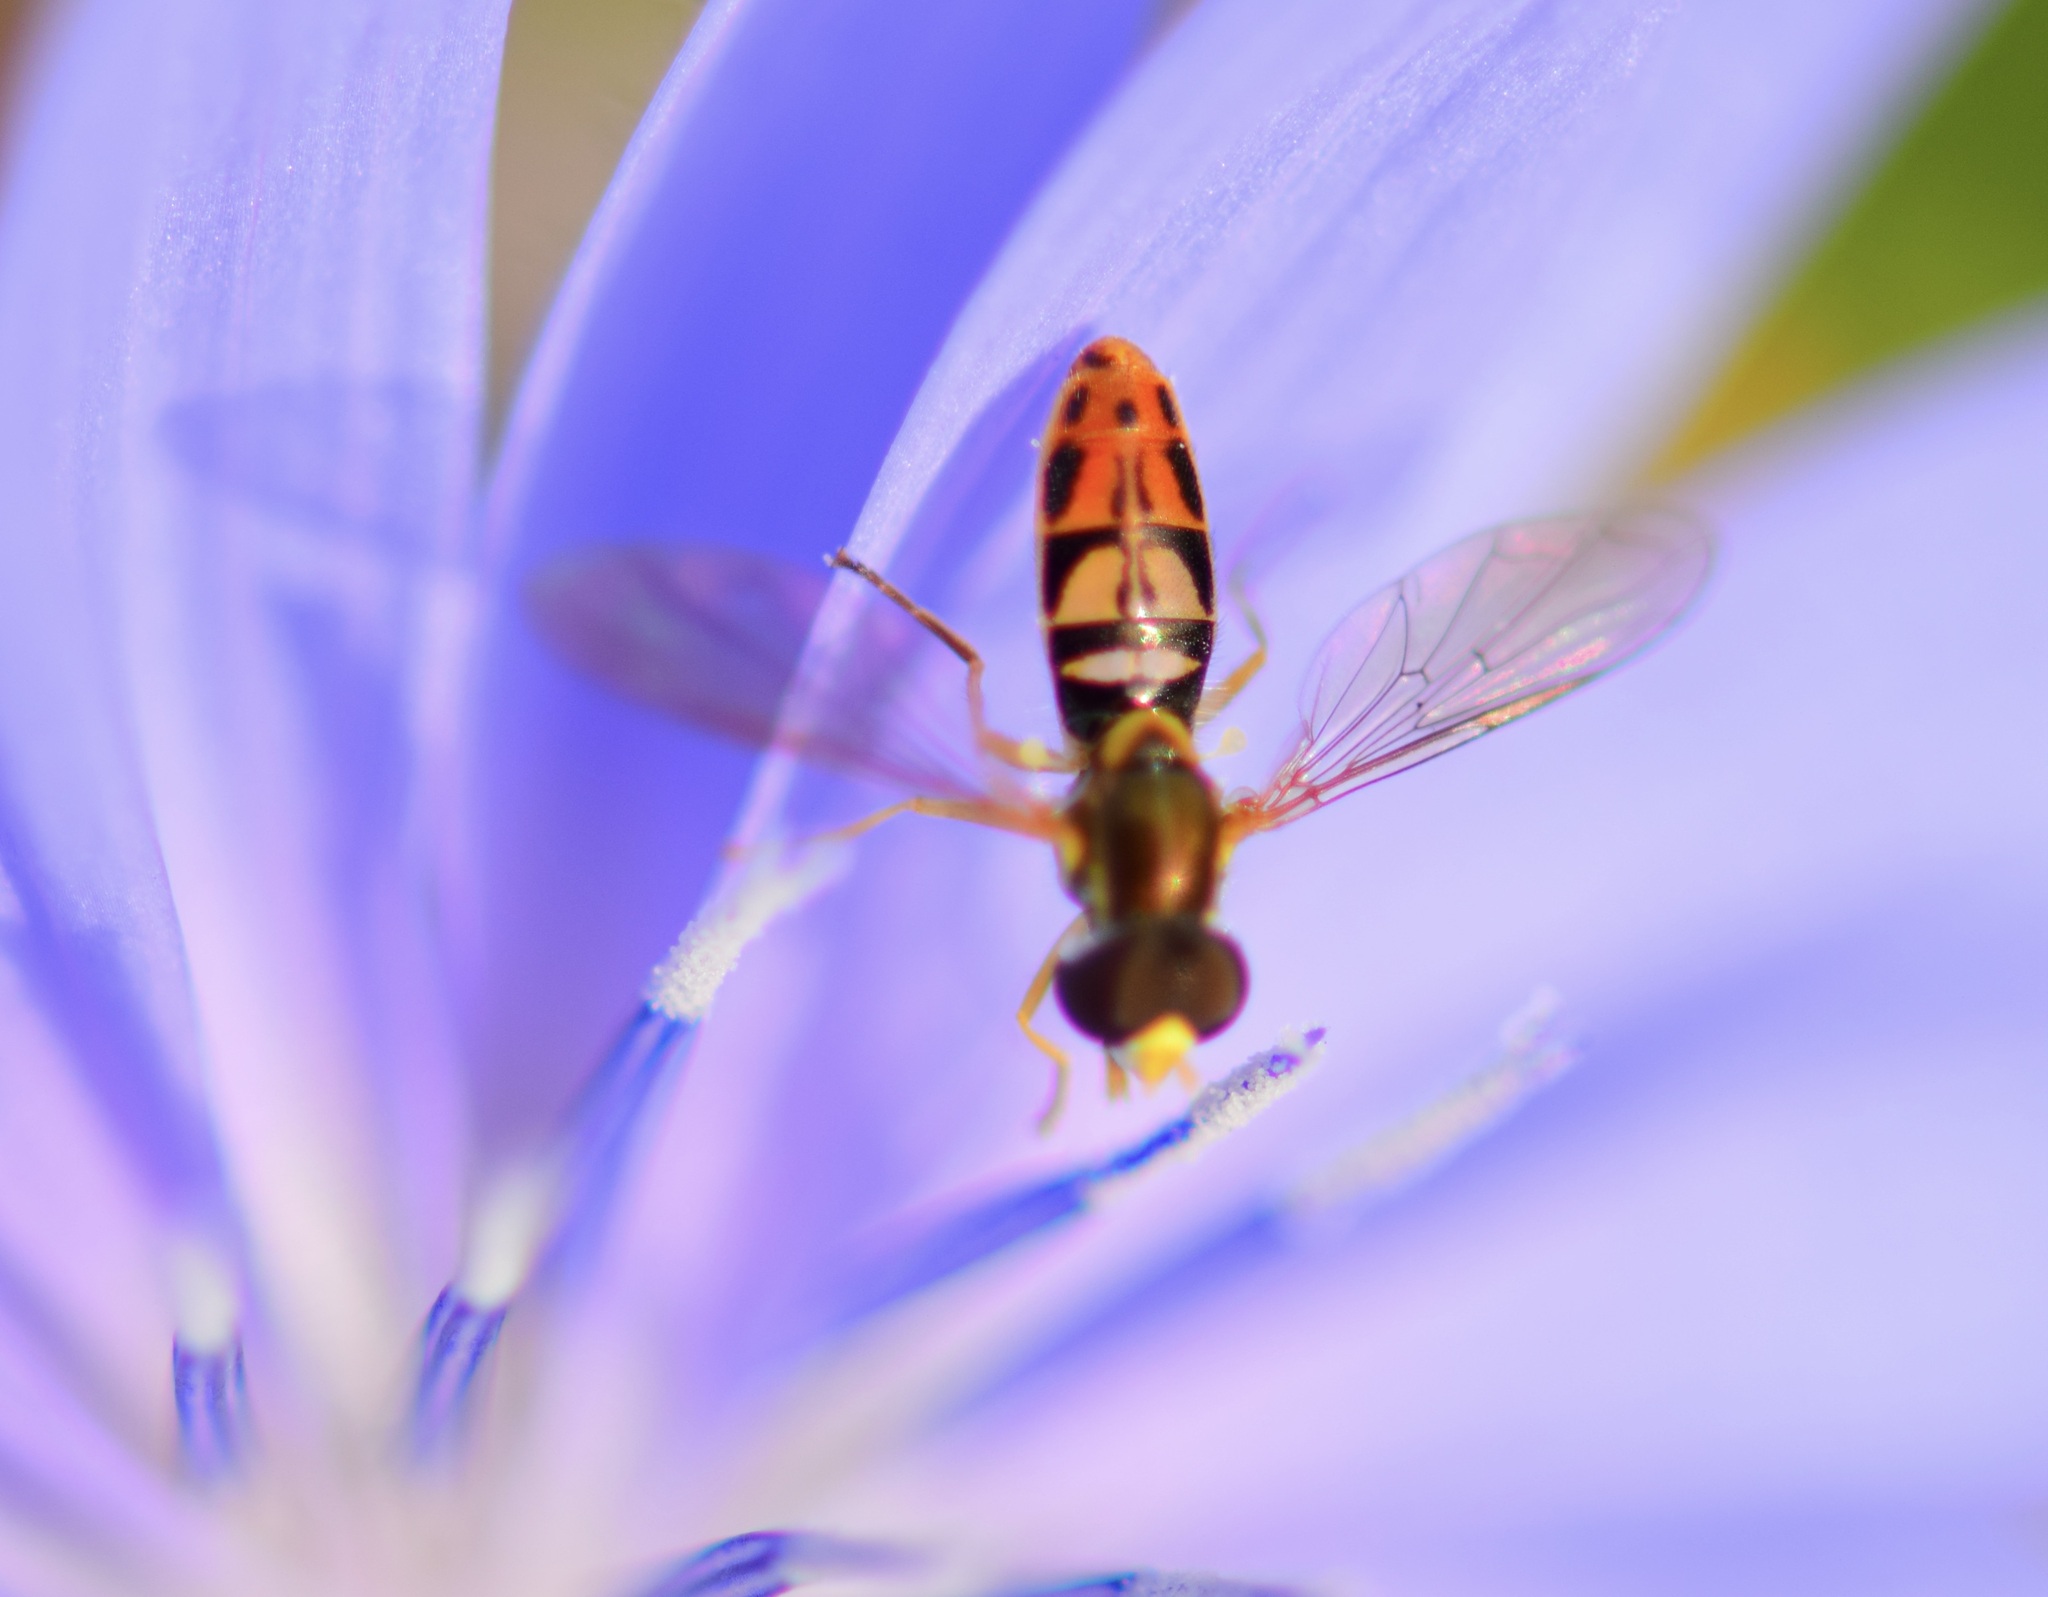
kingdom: Animalia
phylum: Arthropoda
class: Insecta
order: Diptera
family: Syrphidae
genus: Toxomerus
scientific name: Toxomerus marginatus
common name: Syrphid fly
